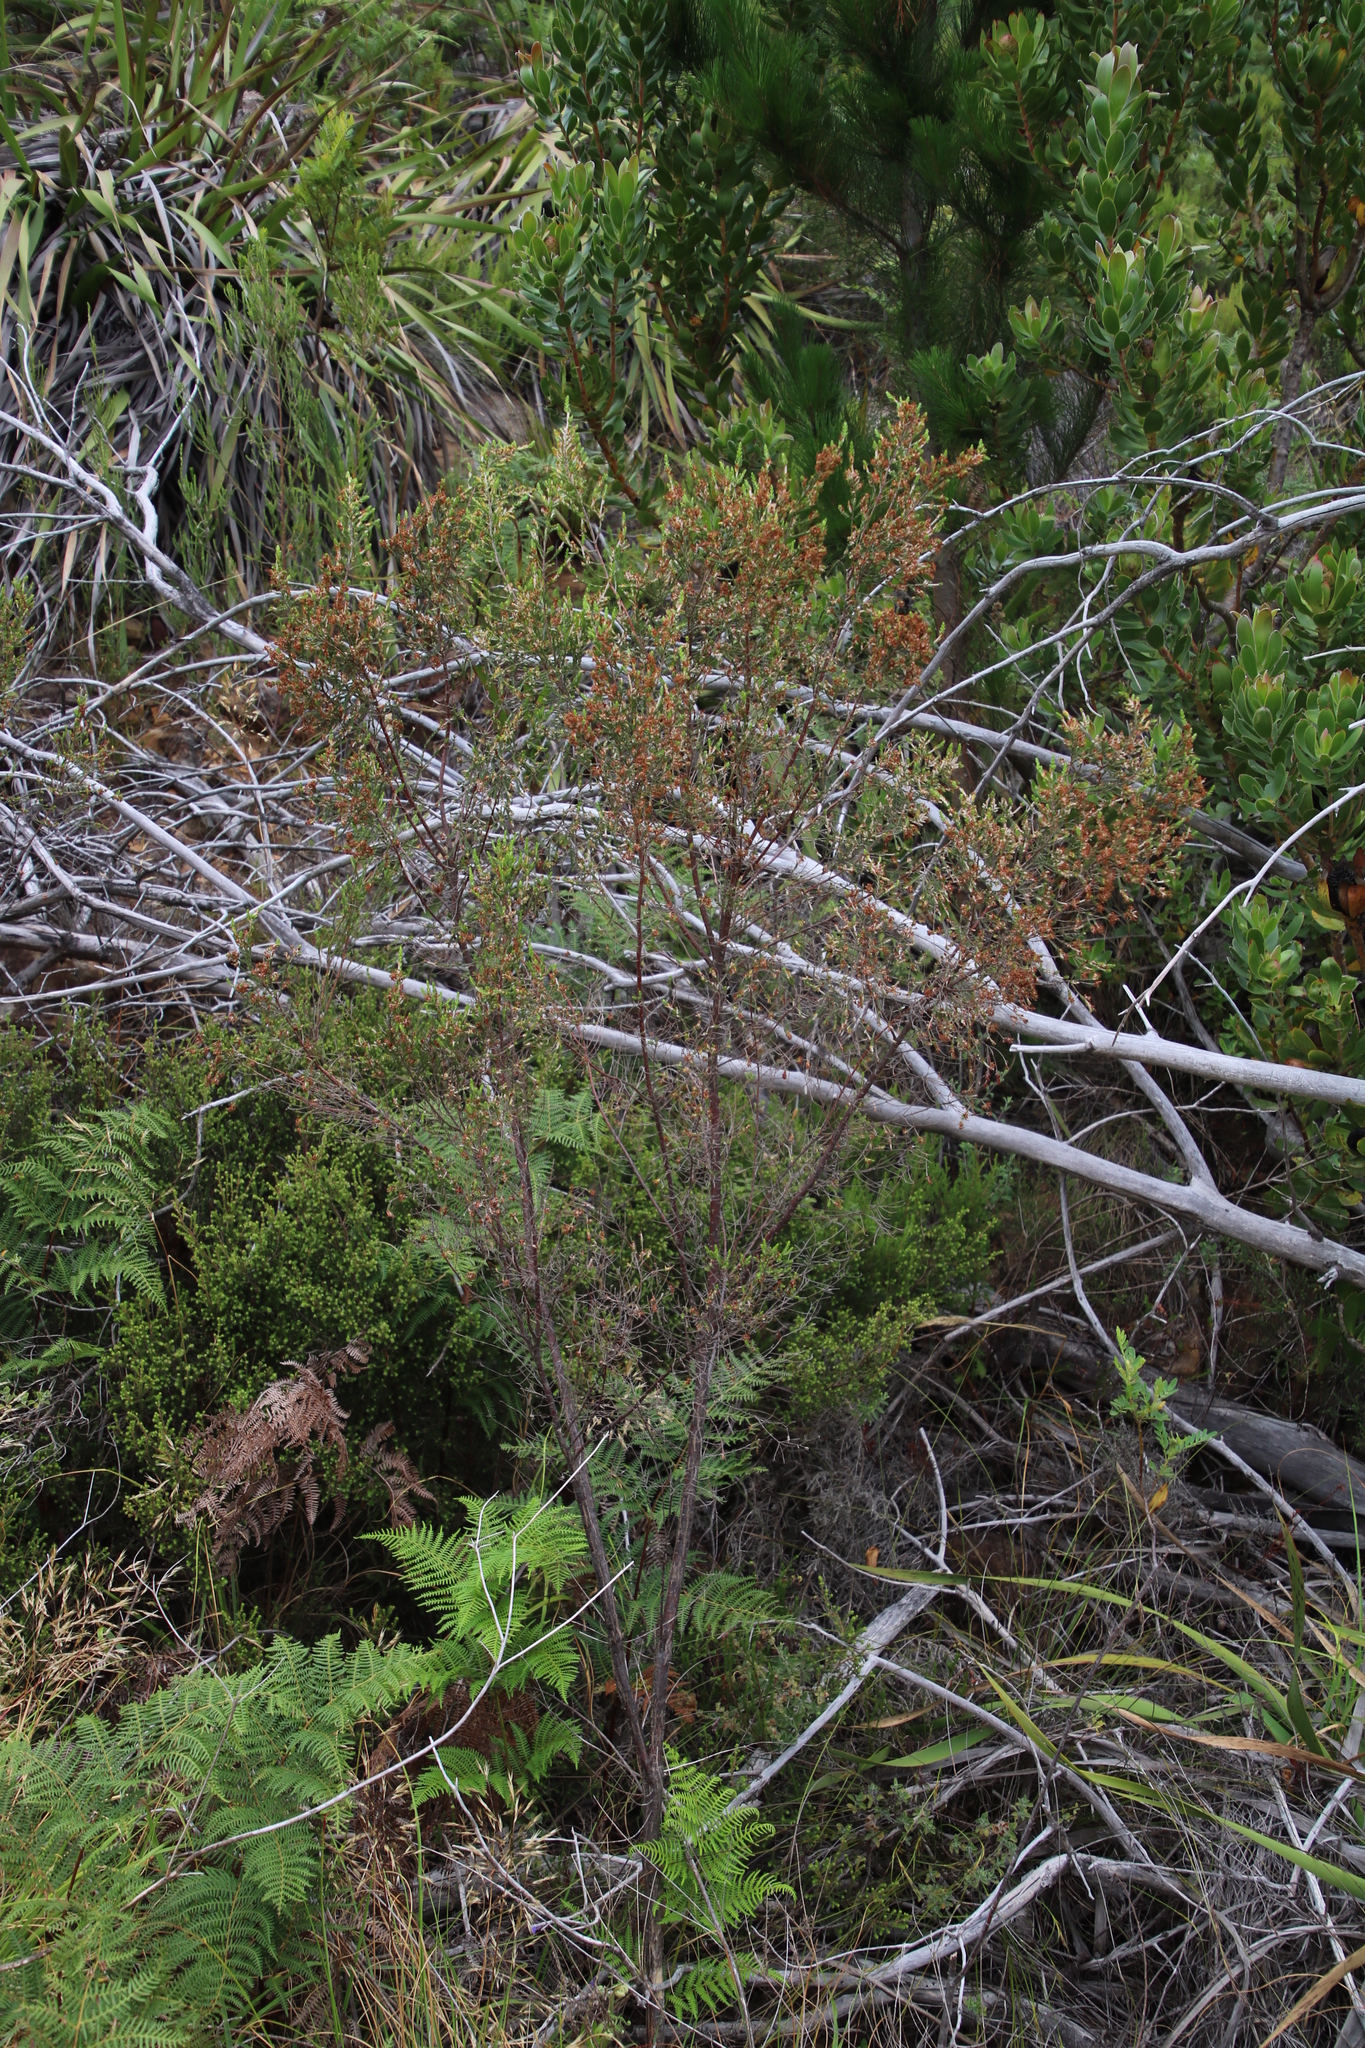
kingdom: Plantae
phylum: Tracheophyta
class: Magnoliopsida
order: Malvales
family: Thymelaeaceae
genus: Passerina
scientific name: Passerina corymbosa
